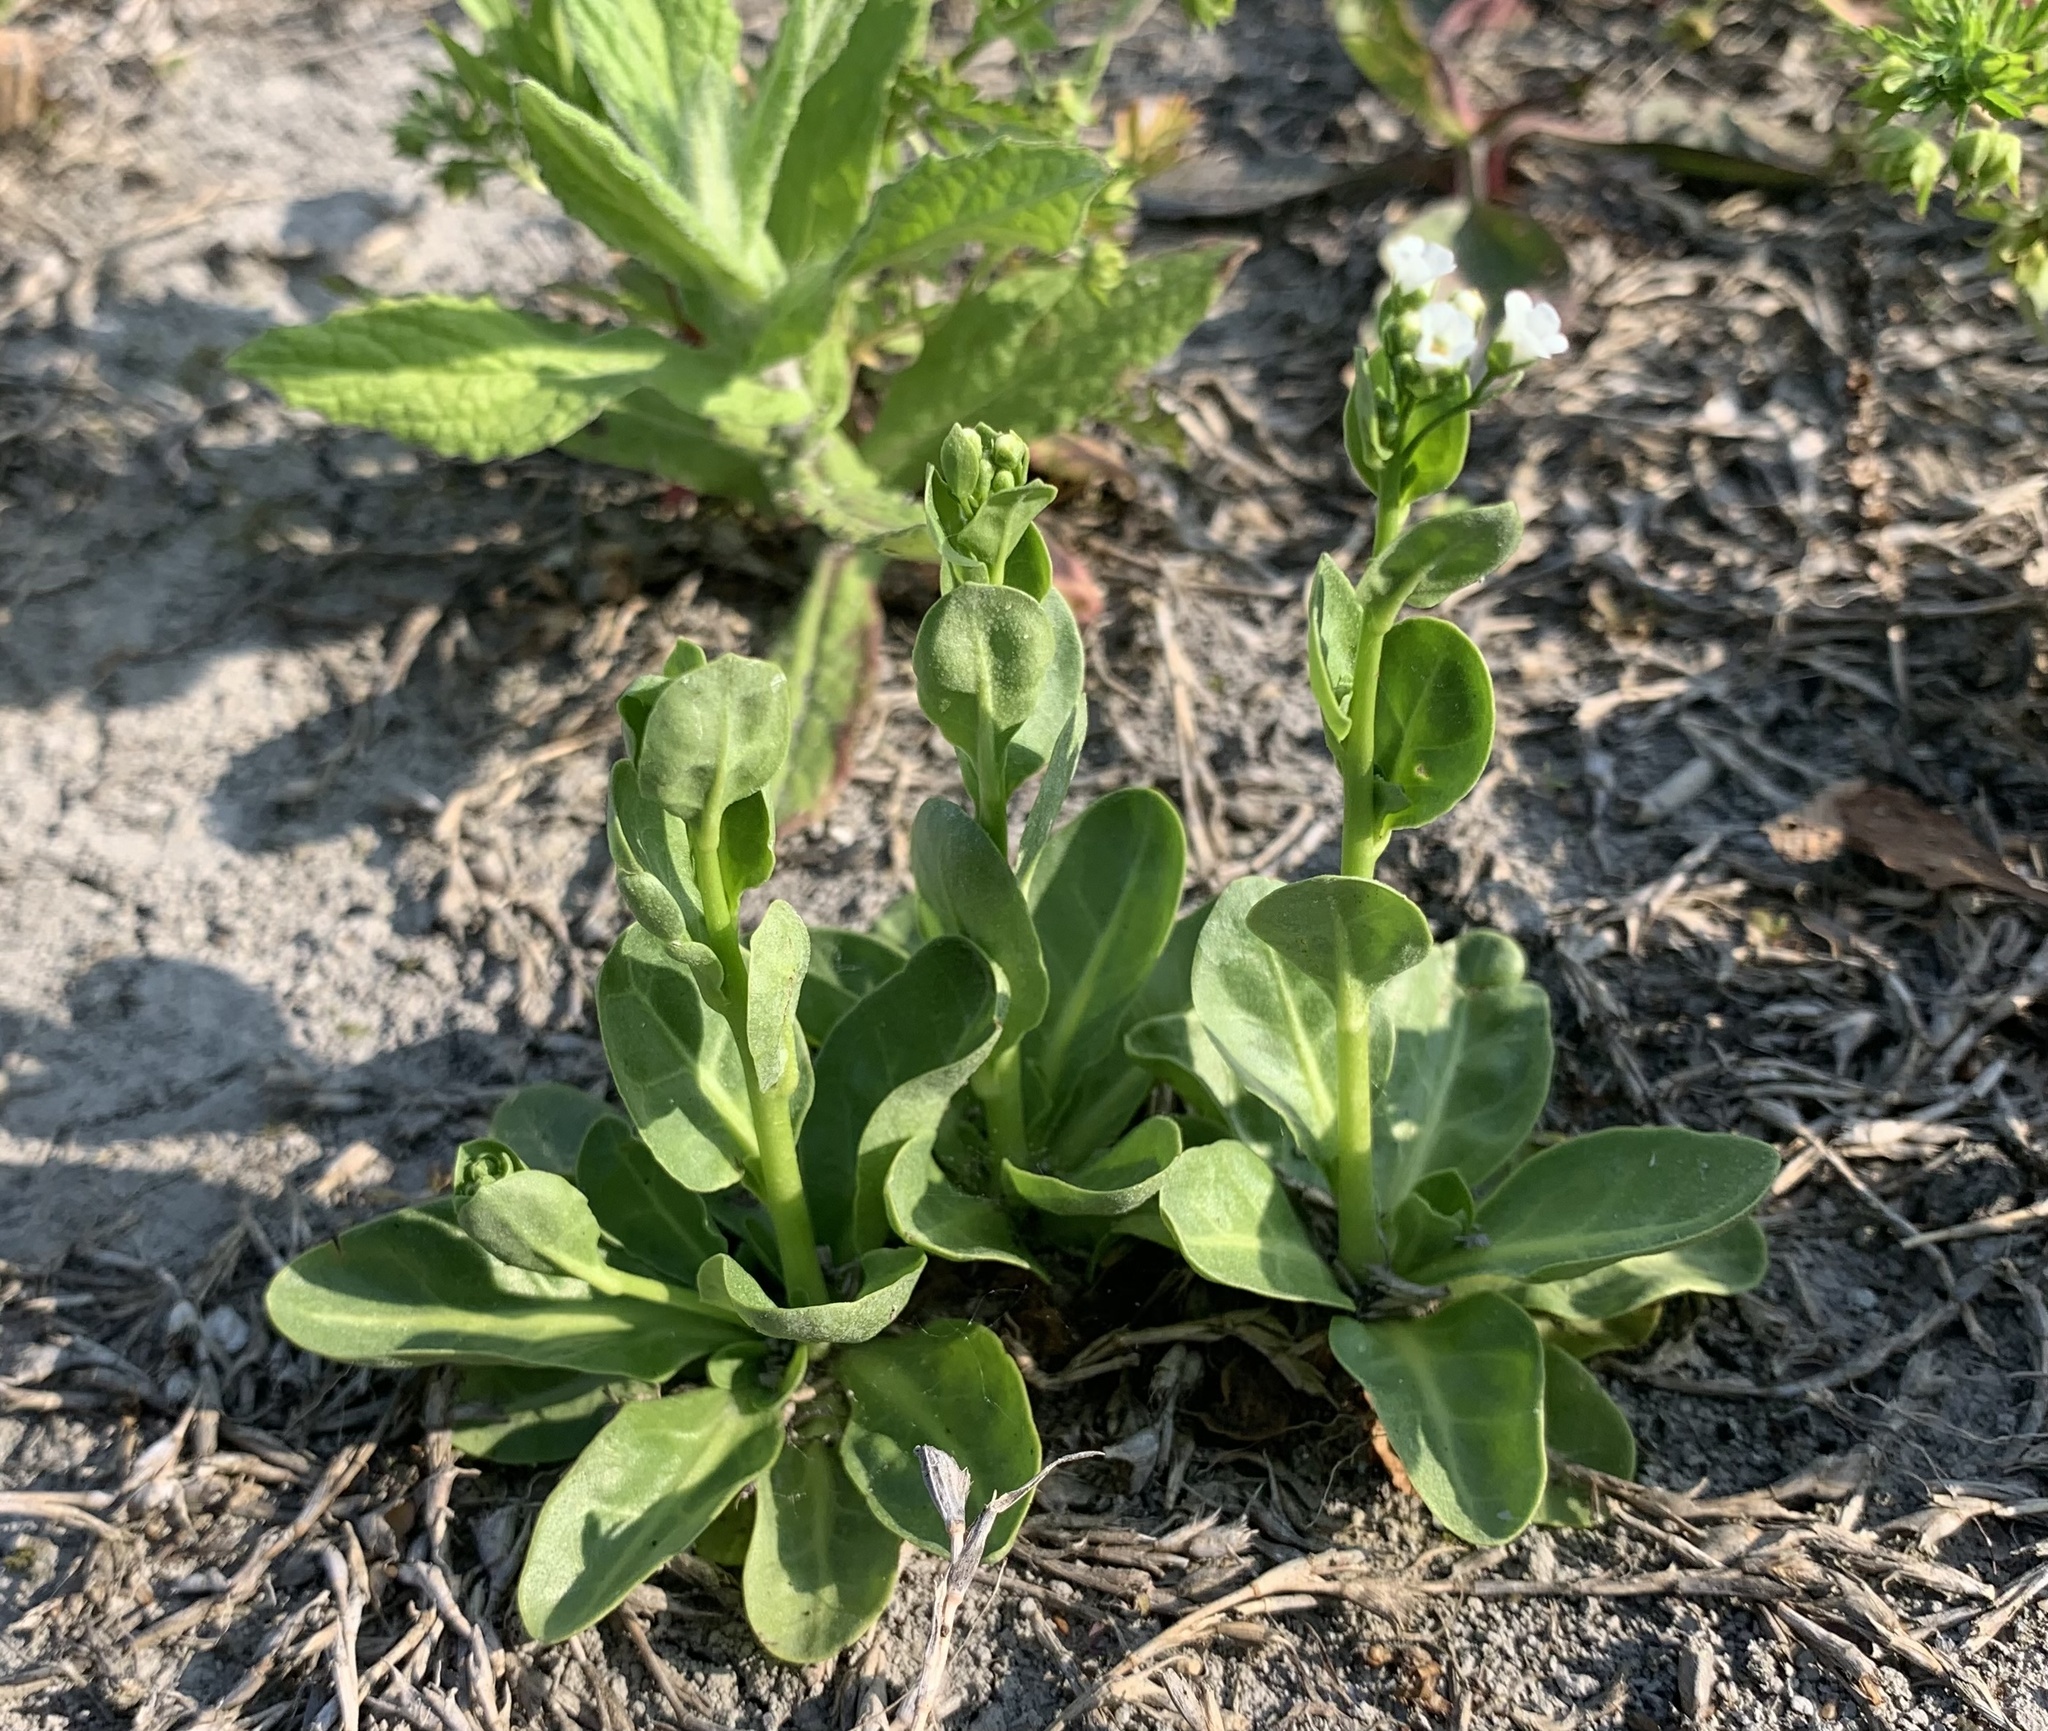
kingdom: Plantae
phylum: Tracheophyta
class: Magnoliopsida
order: Ericales
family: Primulaceae
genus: Samolus
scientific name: Samolus valerandi
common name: Brookweed
